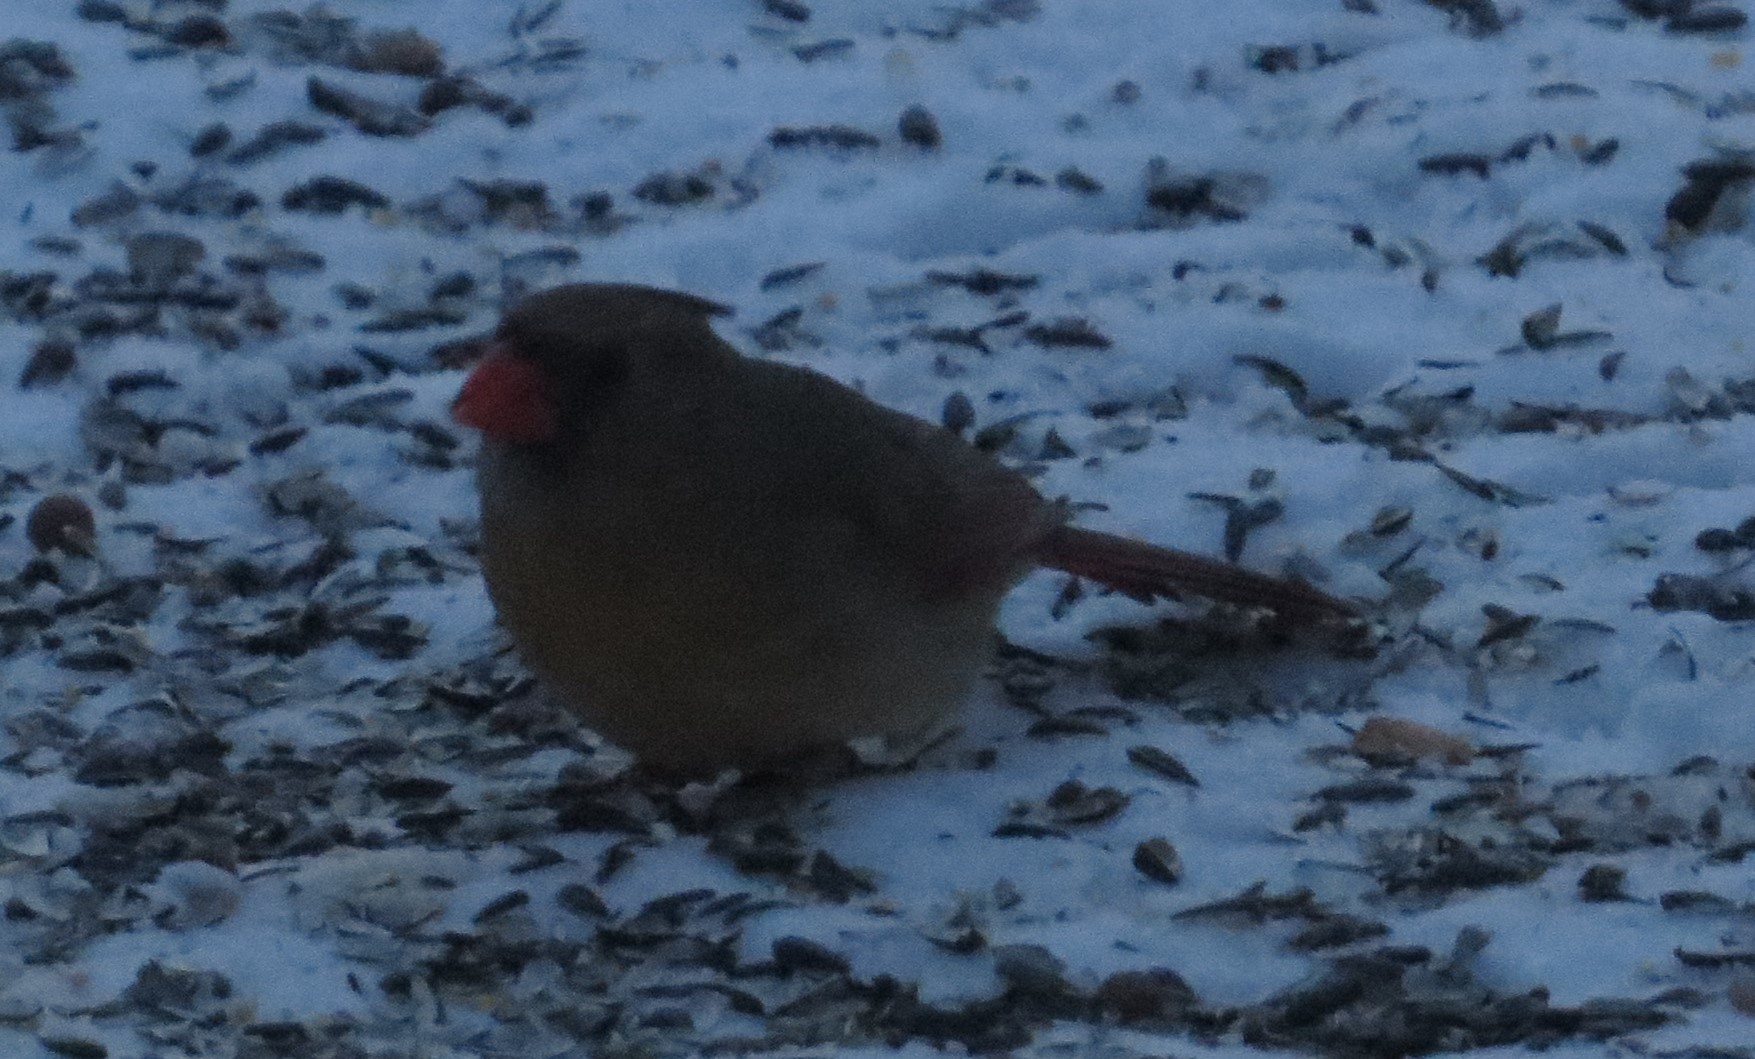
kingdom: Animalia
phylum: Chordata
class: Aves
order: Passeriformes
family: Cardinalidae
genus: Cardinalis
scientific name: Cardinalis cardinalis
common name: Northern cardinal
